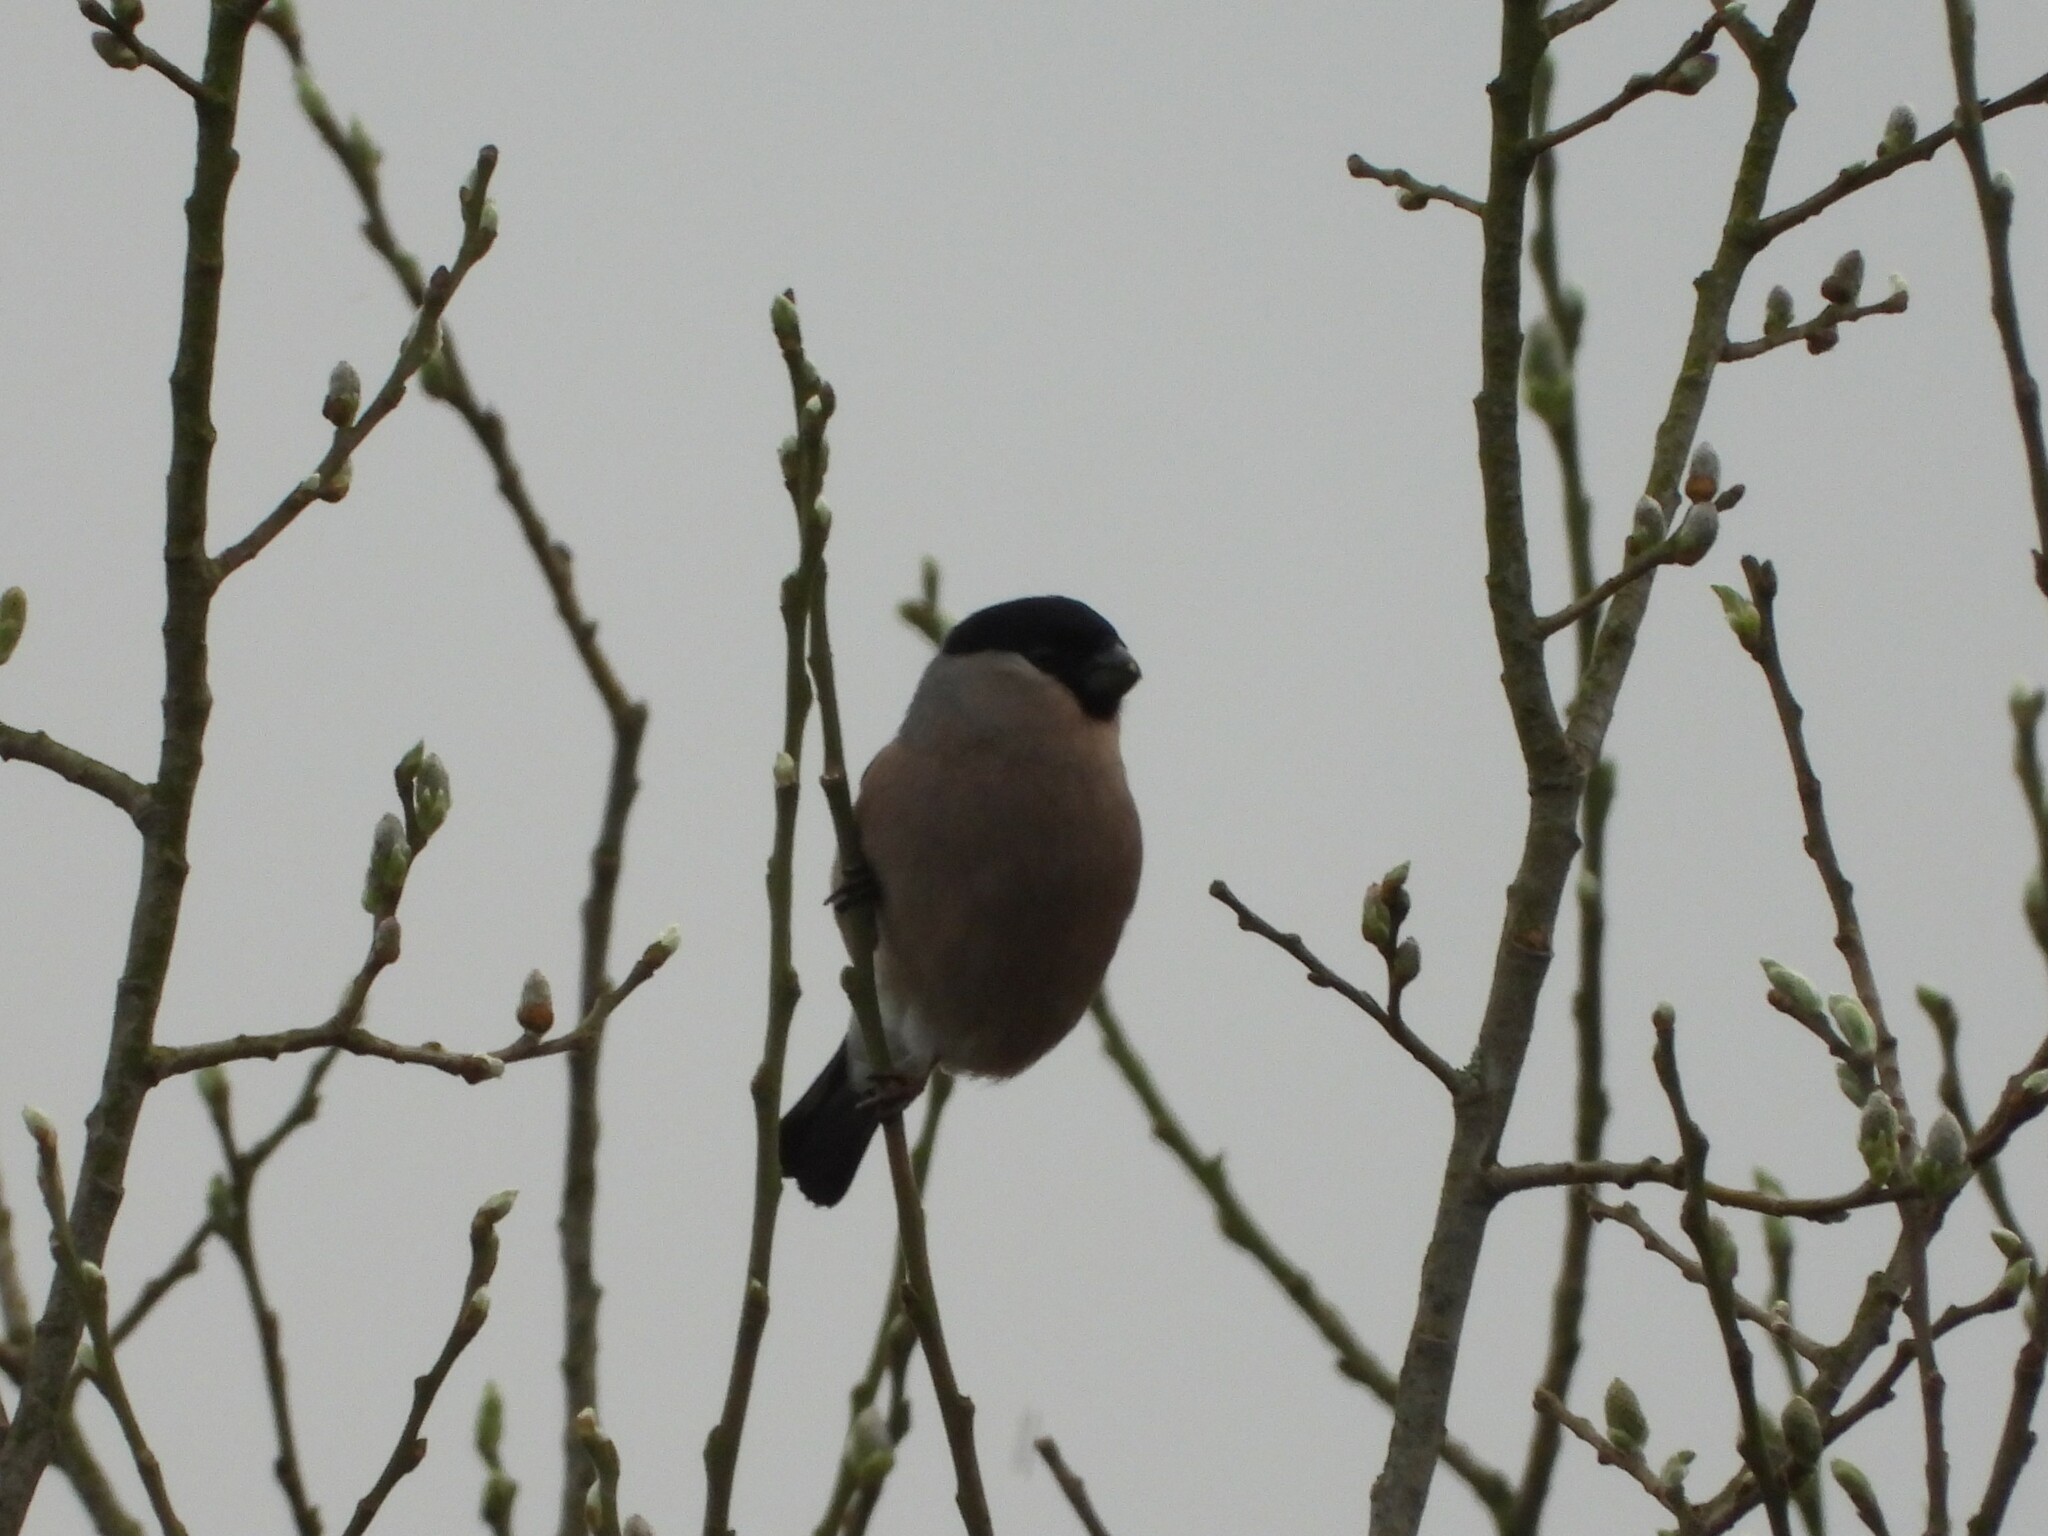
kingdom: Animalia
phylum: Chordata
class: Aves
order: Passeriformes
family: Fringillidae
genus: Pyrrhula
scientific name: Pyrrhula pyrrhula
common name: Eurasian bullfinch
